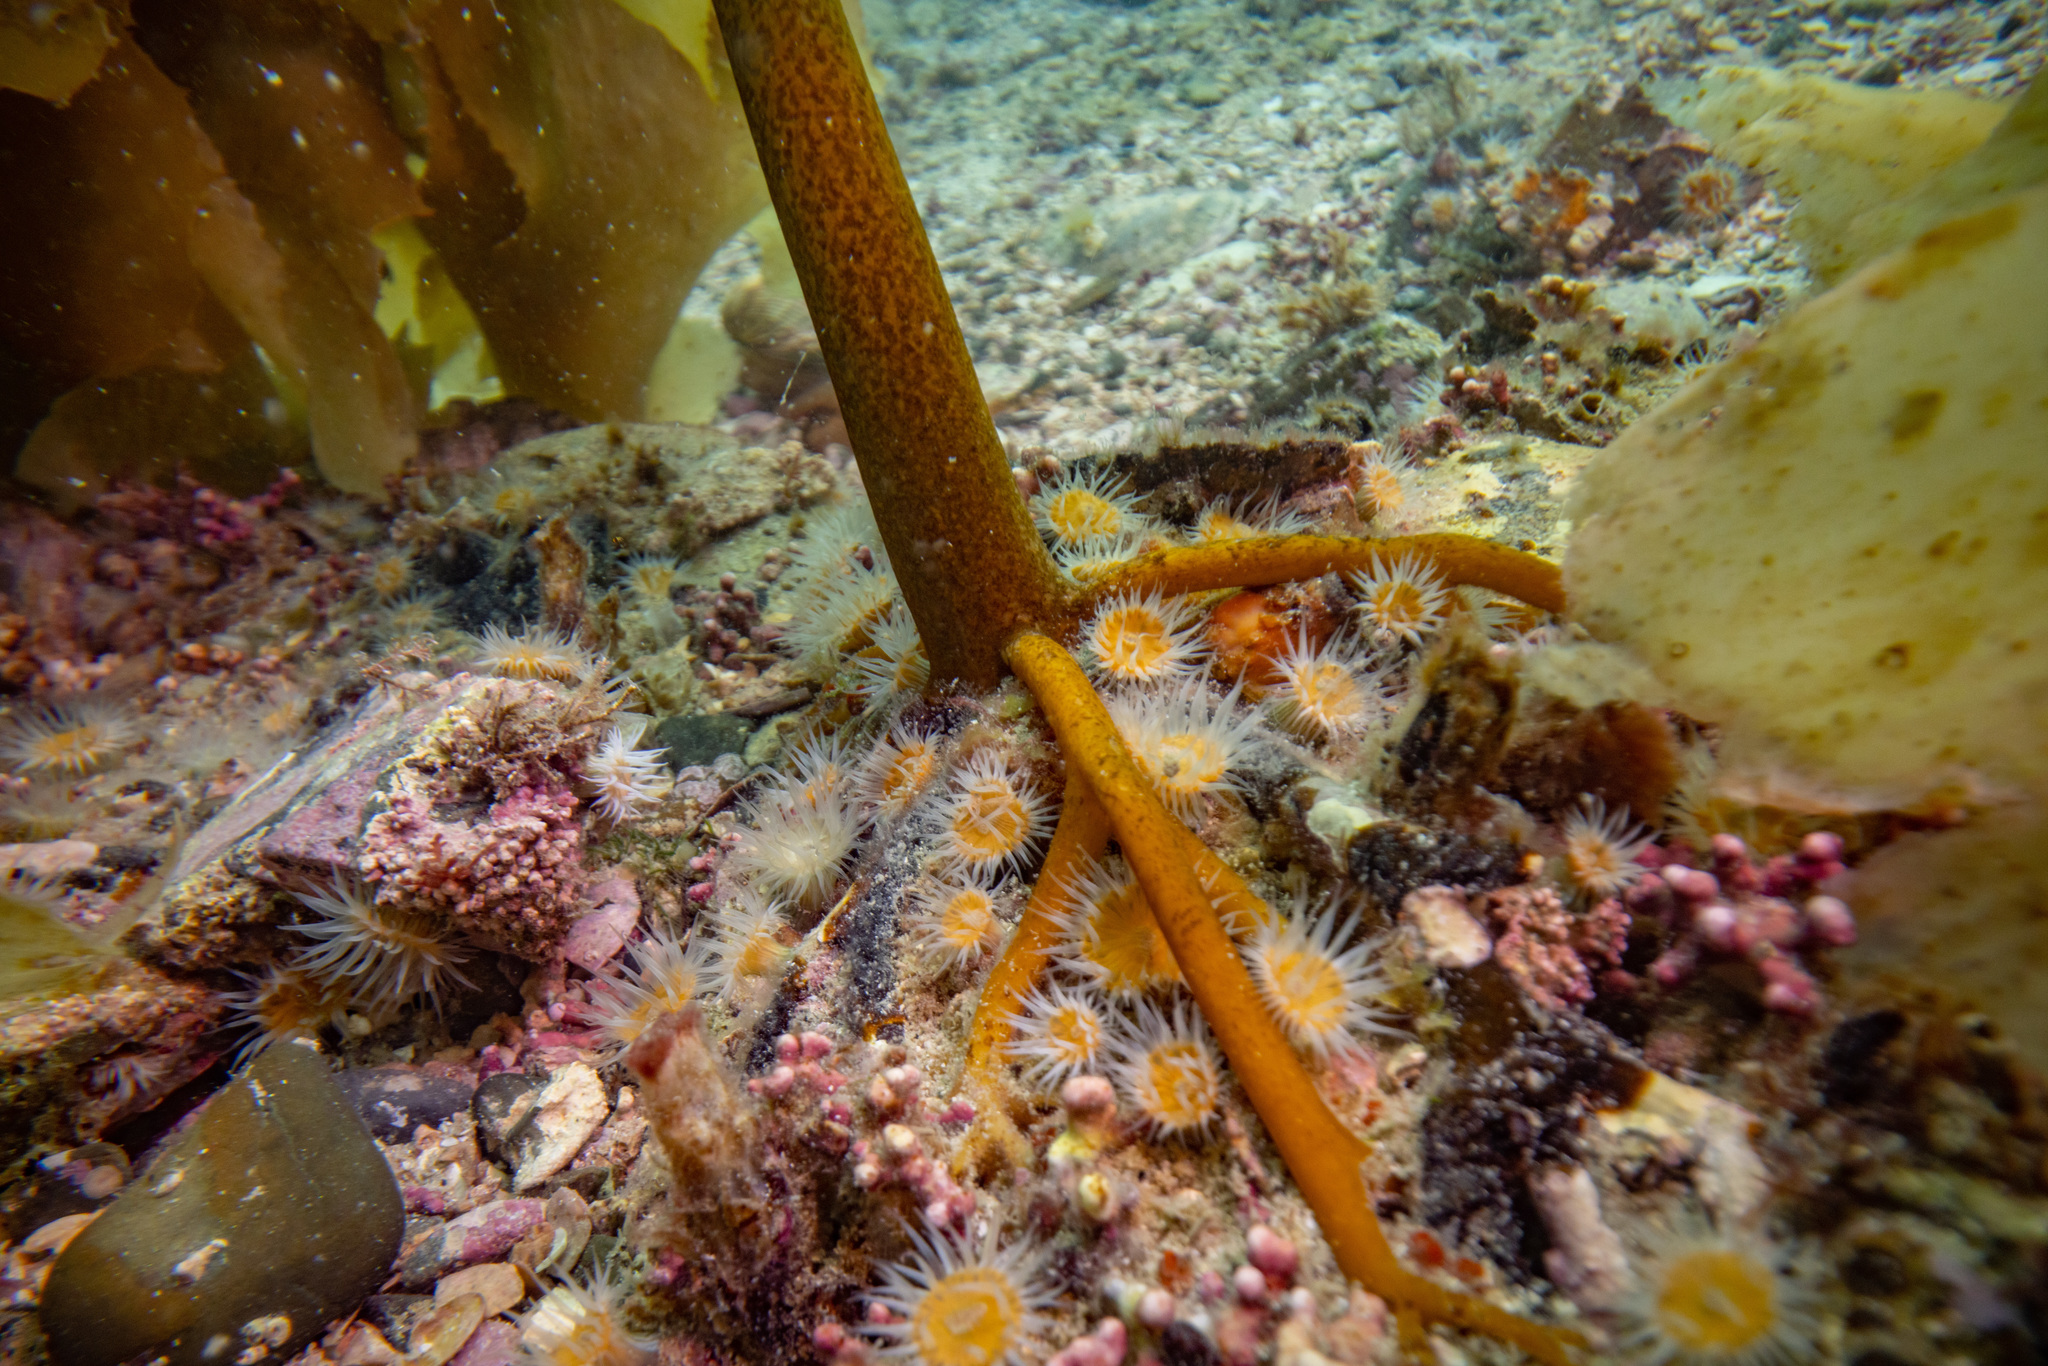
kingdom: Animalia
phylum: Cnidaria
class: Anthozoa
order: Actiniaria
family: Sagartiidae
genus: Anthothoe
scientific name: Anthothoe albocincta
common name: Orange striped anemone
